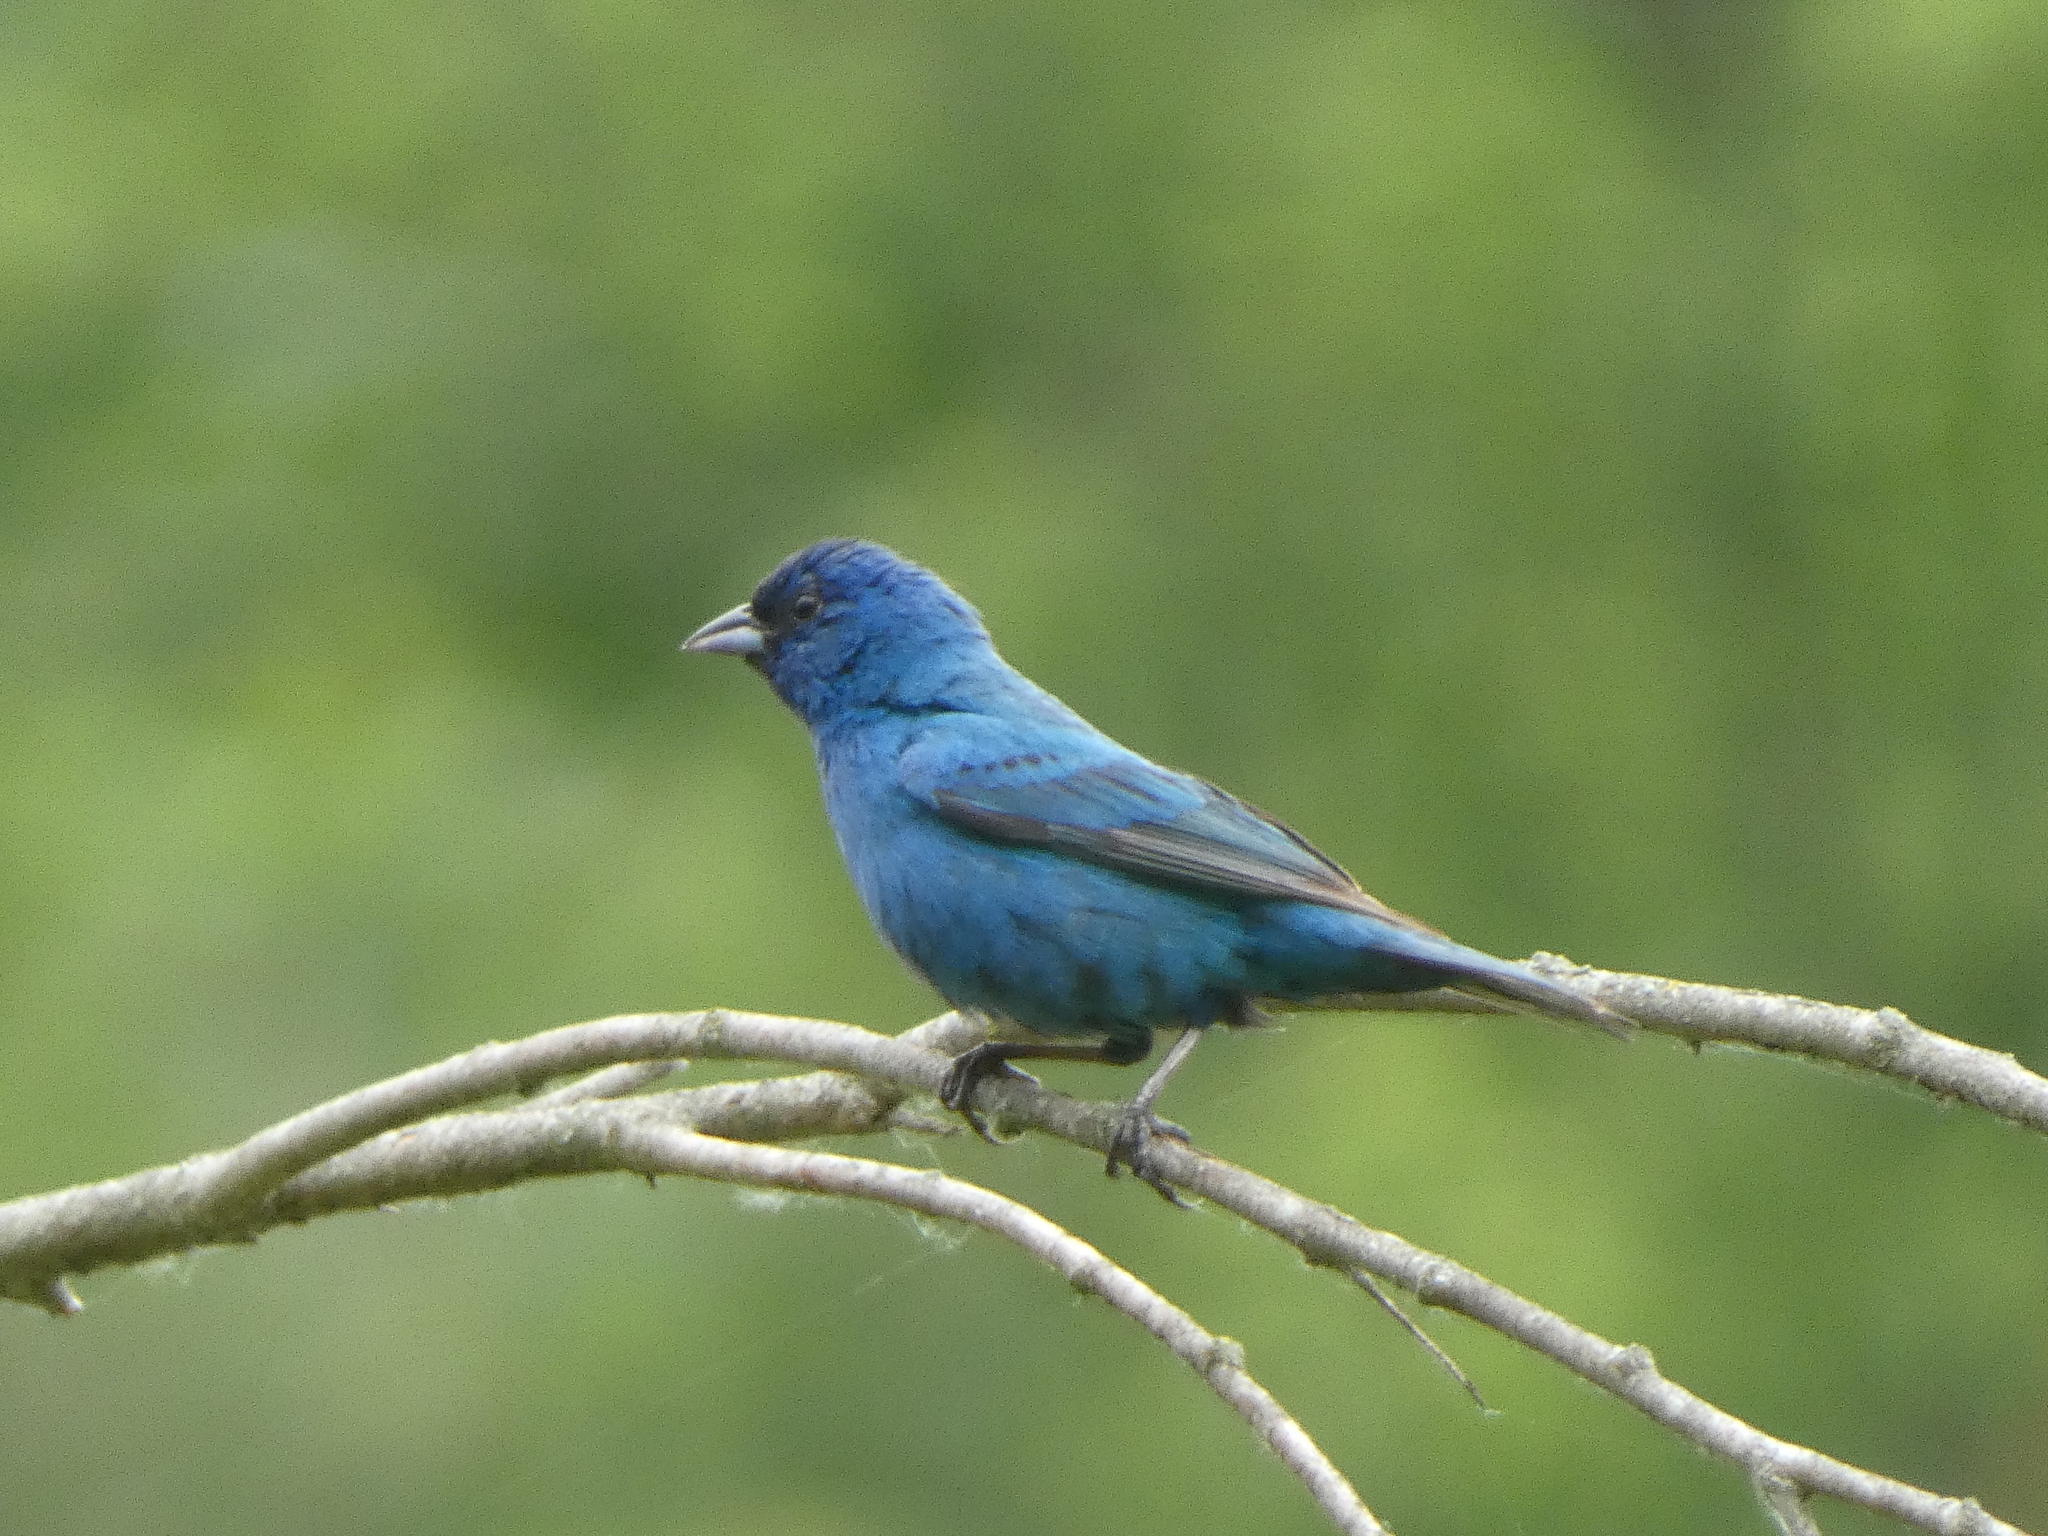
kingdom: Animalia
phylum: Chordata
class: Aves
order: Passeriformes
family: Cardinalidae
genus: Passerina
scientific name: Passerina cyanea
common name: Indigo bunting
